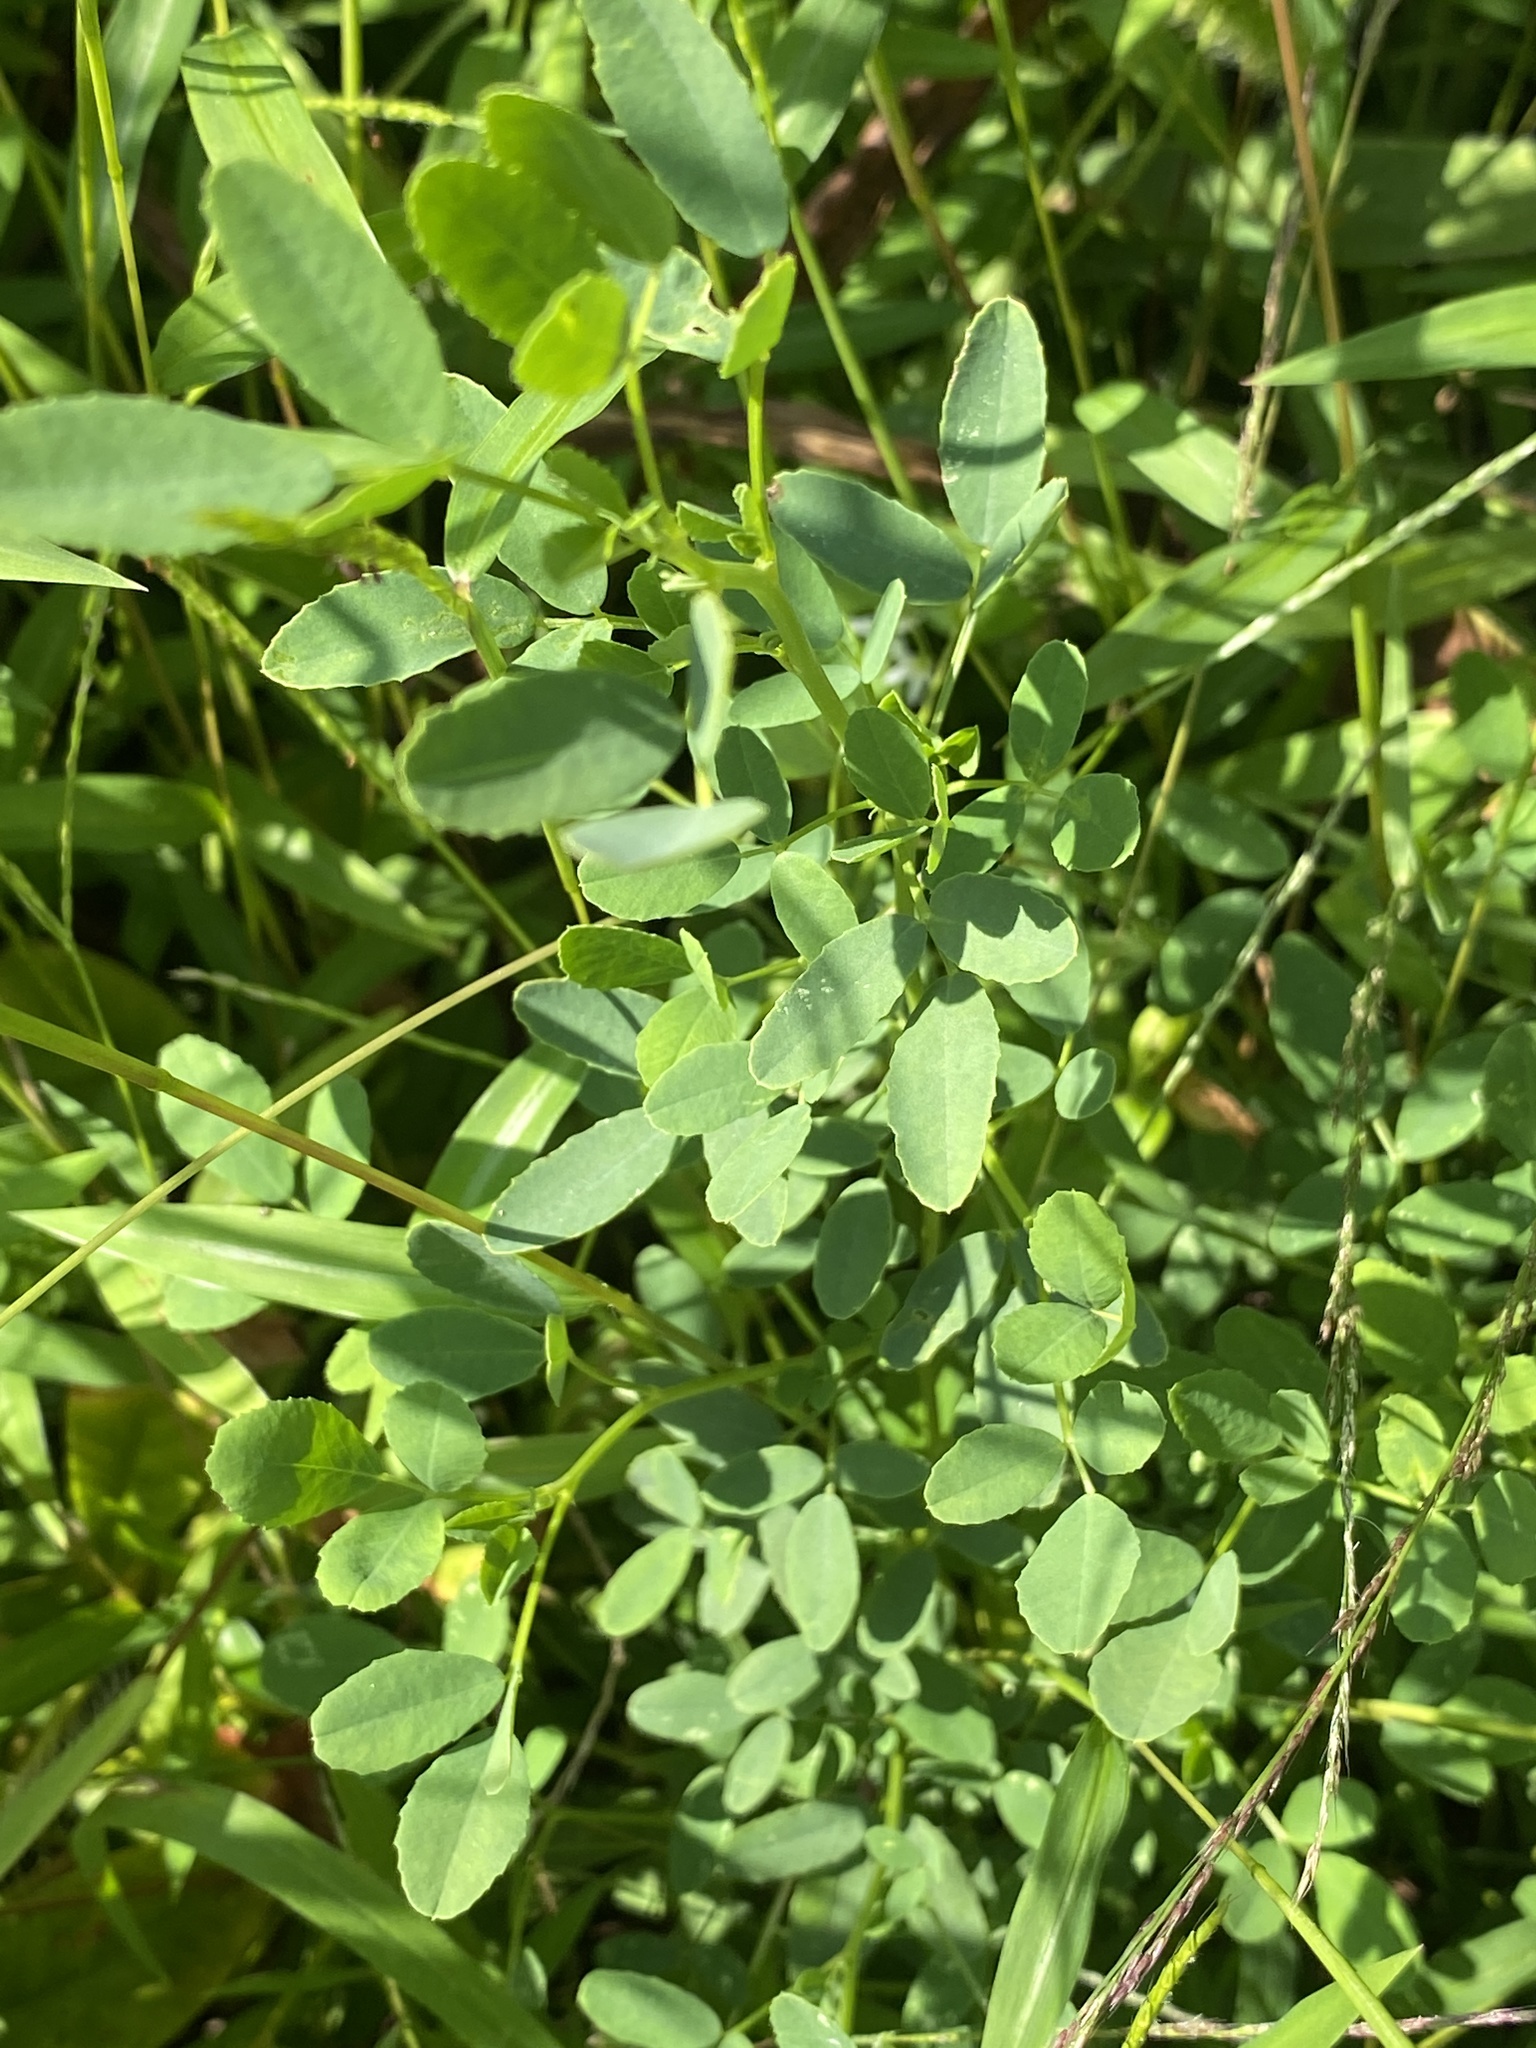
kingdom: Plantae
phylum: Tracheophyta
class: Magnoliopsida
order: Fabales
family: Fabaceae
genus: Melilotus
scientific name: Melilotus
